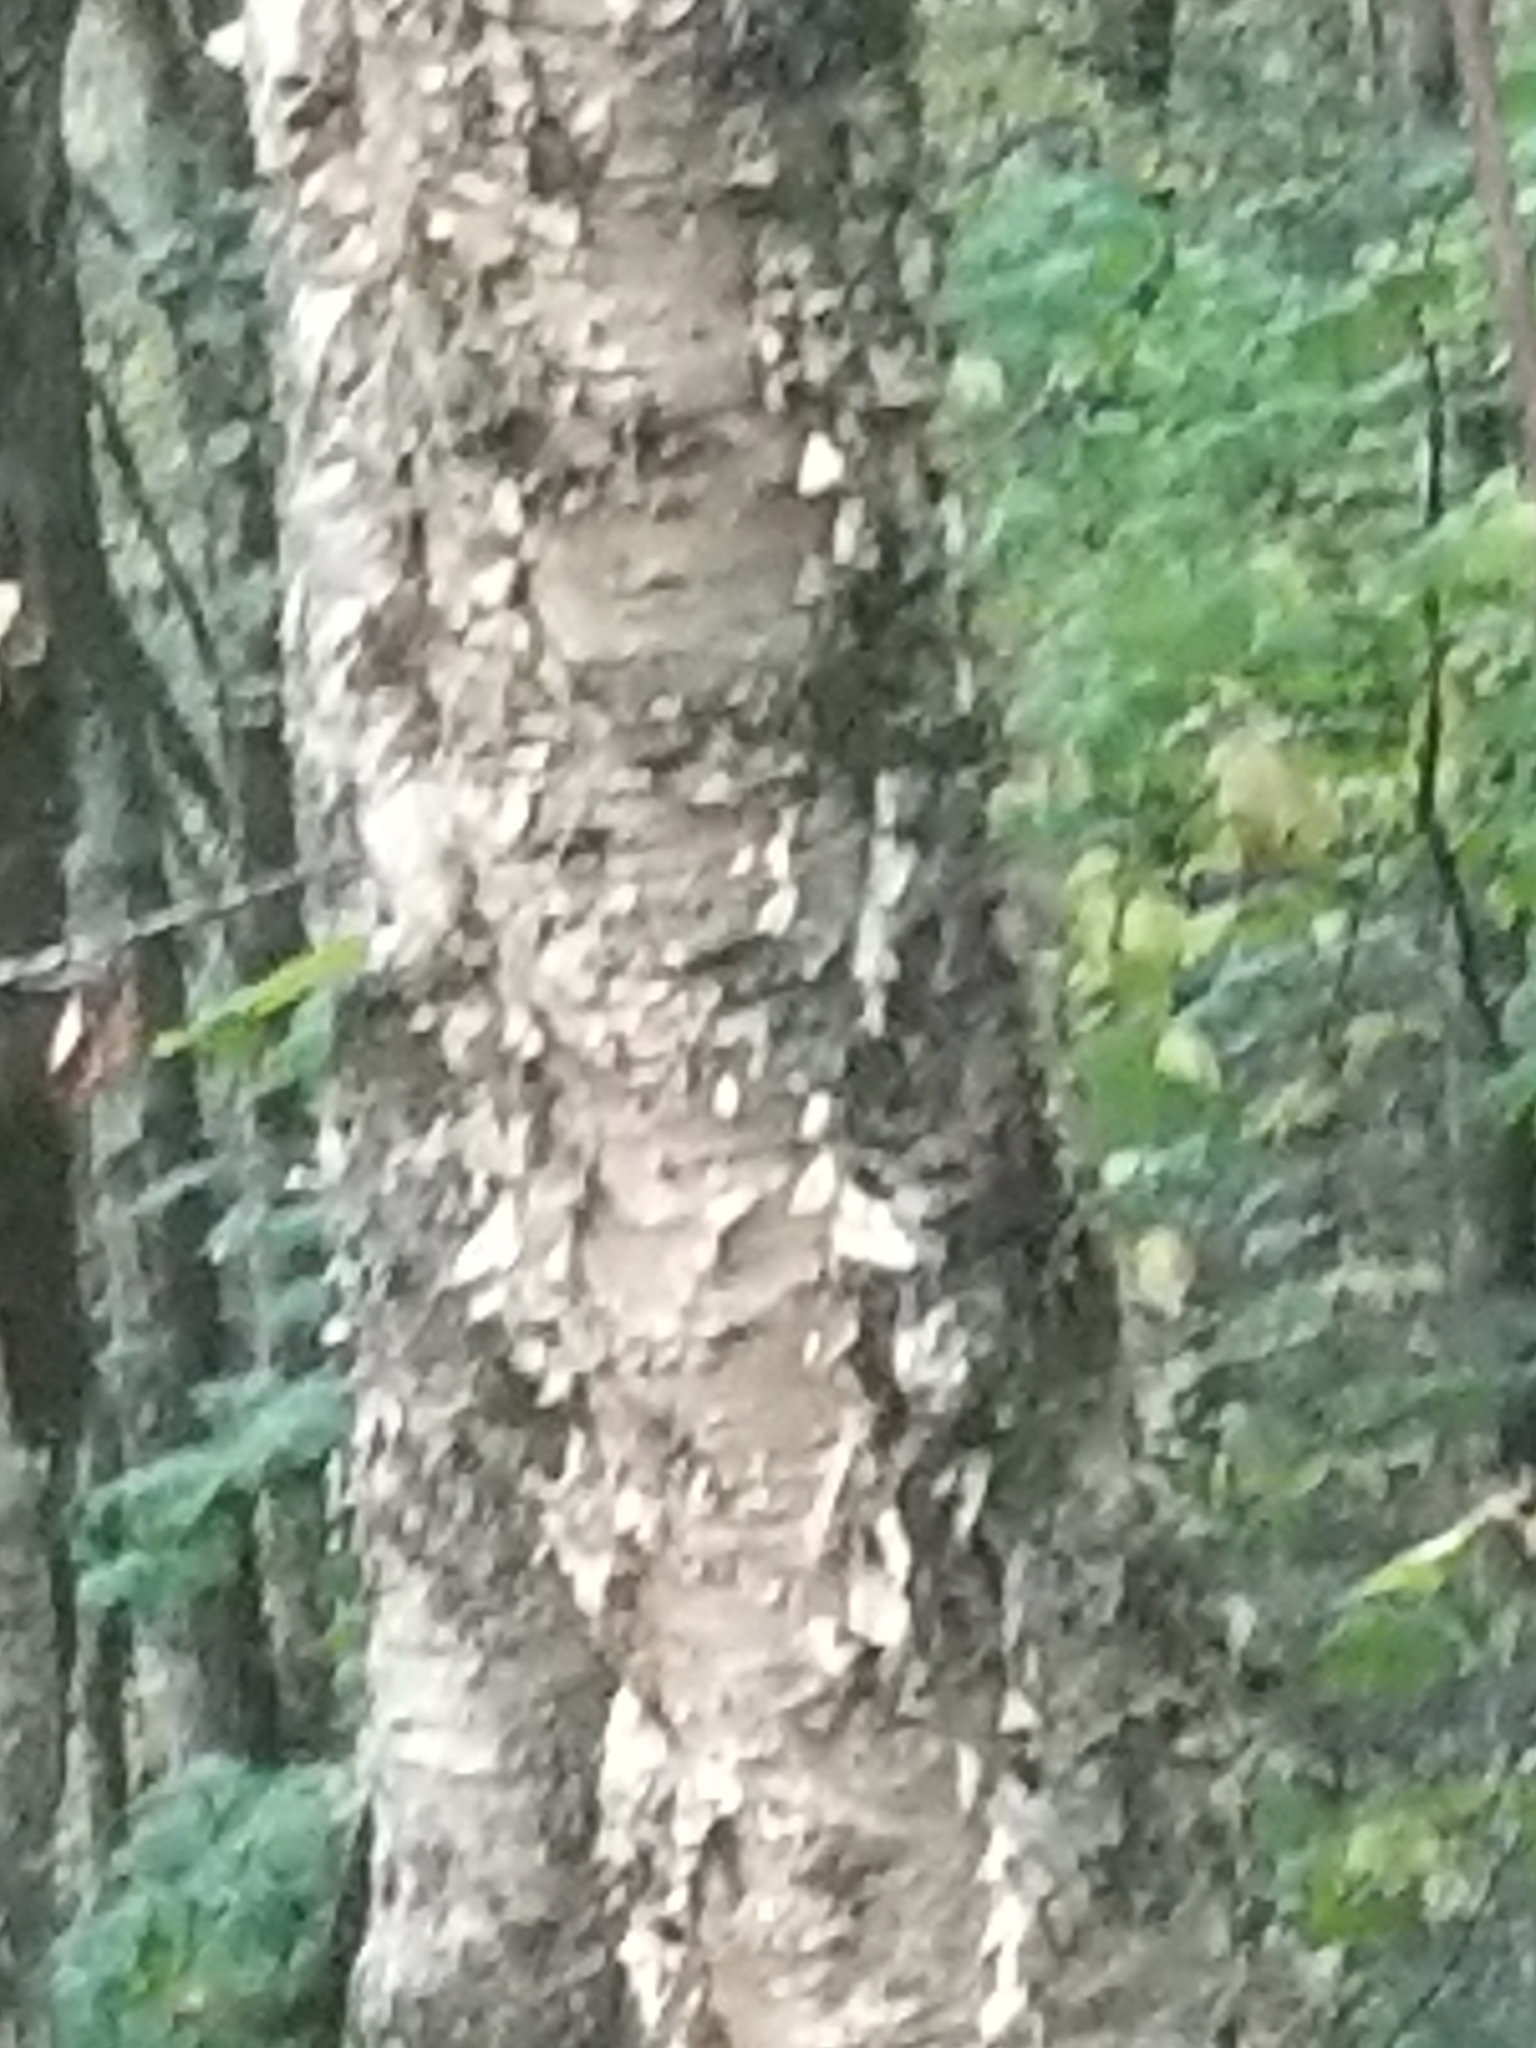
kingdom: Plantae
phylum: Tracheophyta
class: Magnoliopsida
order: Fagales
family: Betulaceae
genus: Betula
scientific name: Betula alleghaniensis
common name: Yellow birch
